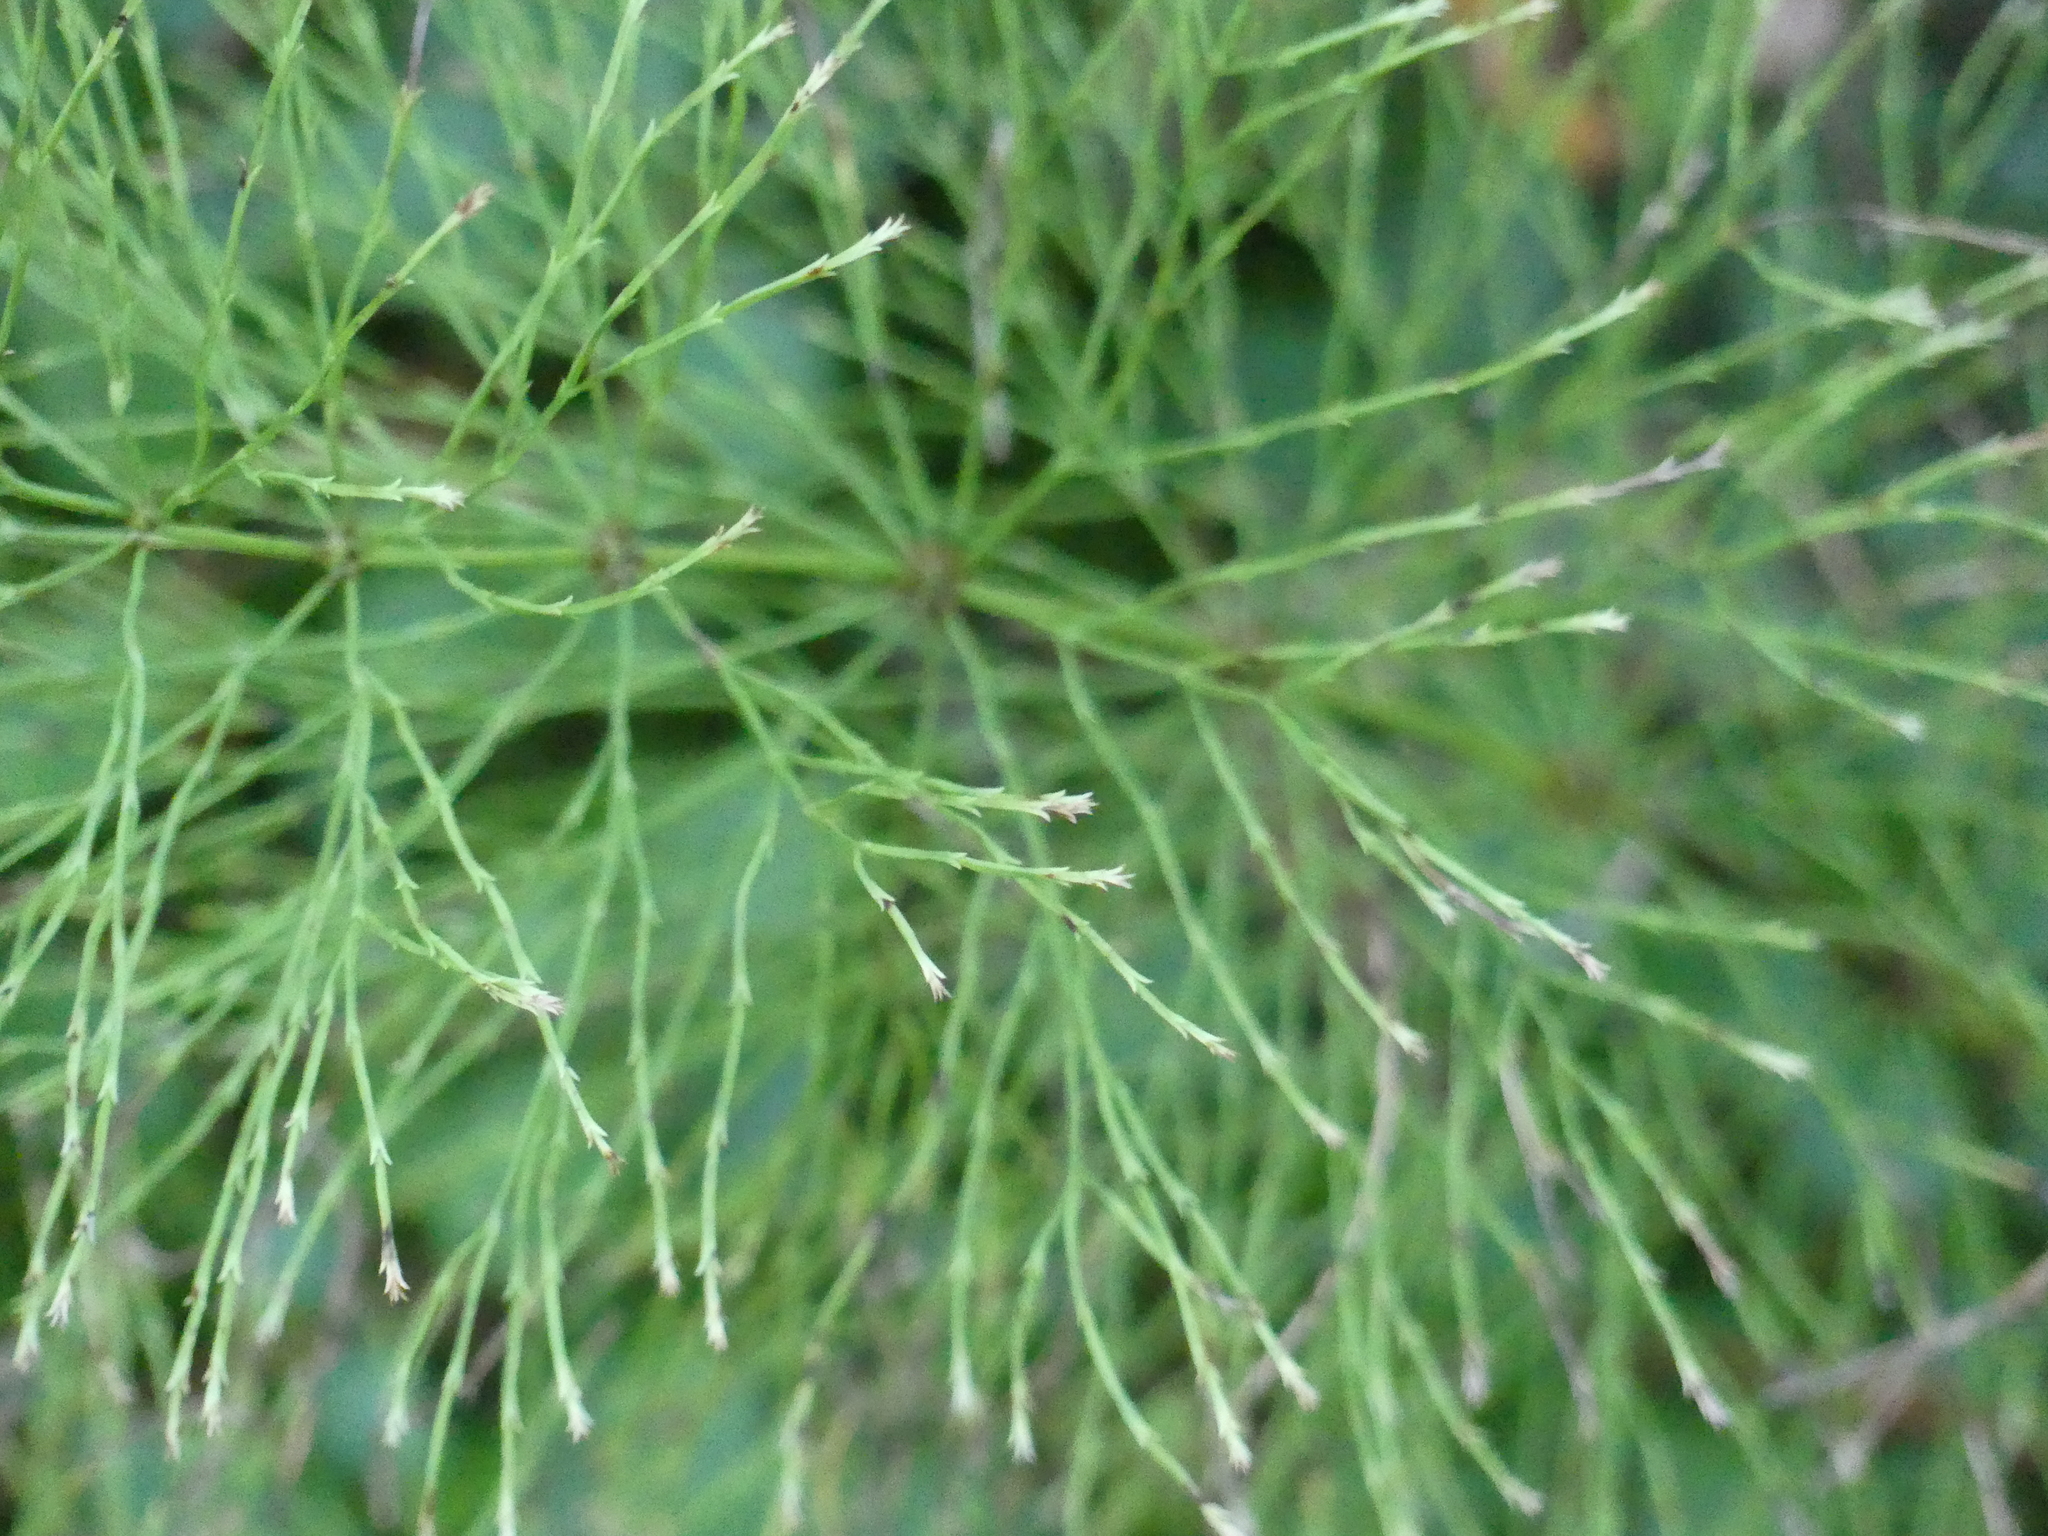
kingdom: Plantae
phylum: Tracheophyta
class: Polypodiopsida
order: Equisetales
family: Equisetaceae
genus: Equisetum
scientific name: Equisetum sylvaticum
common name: Wood horsetail
